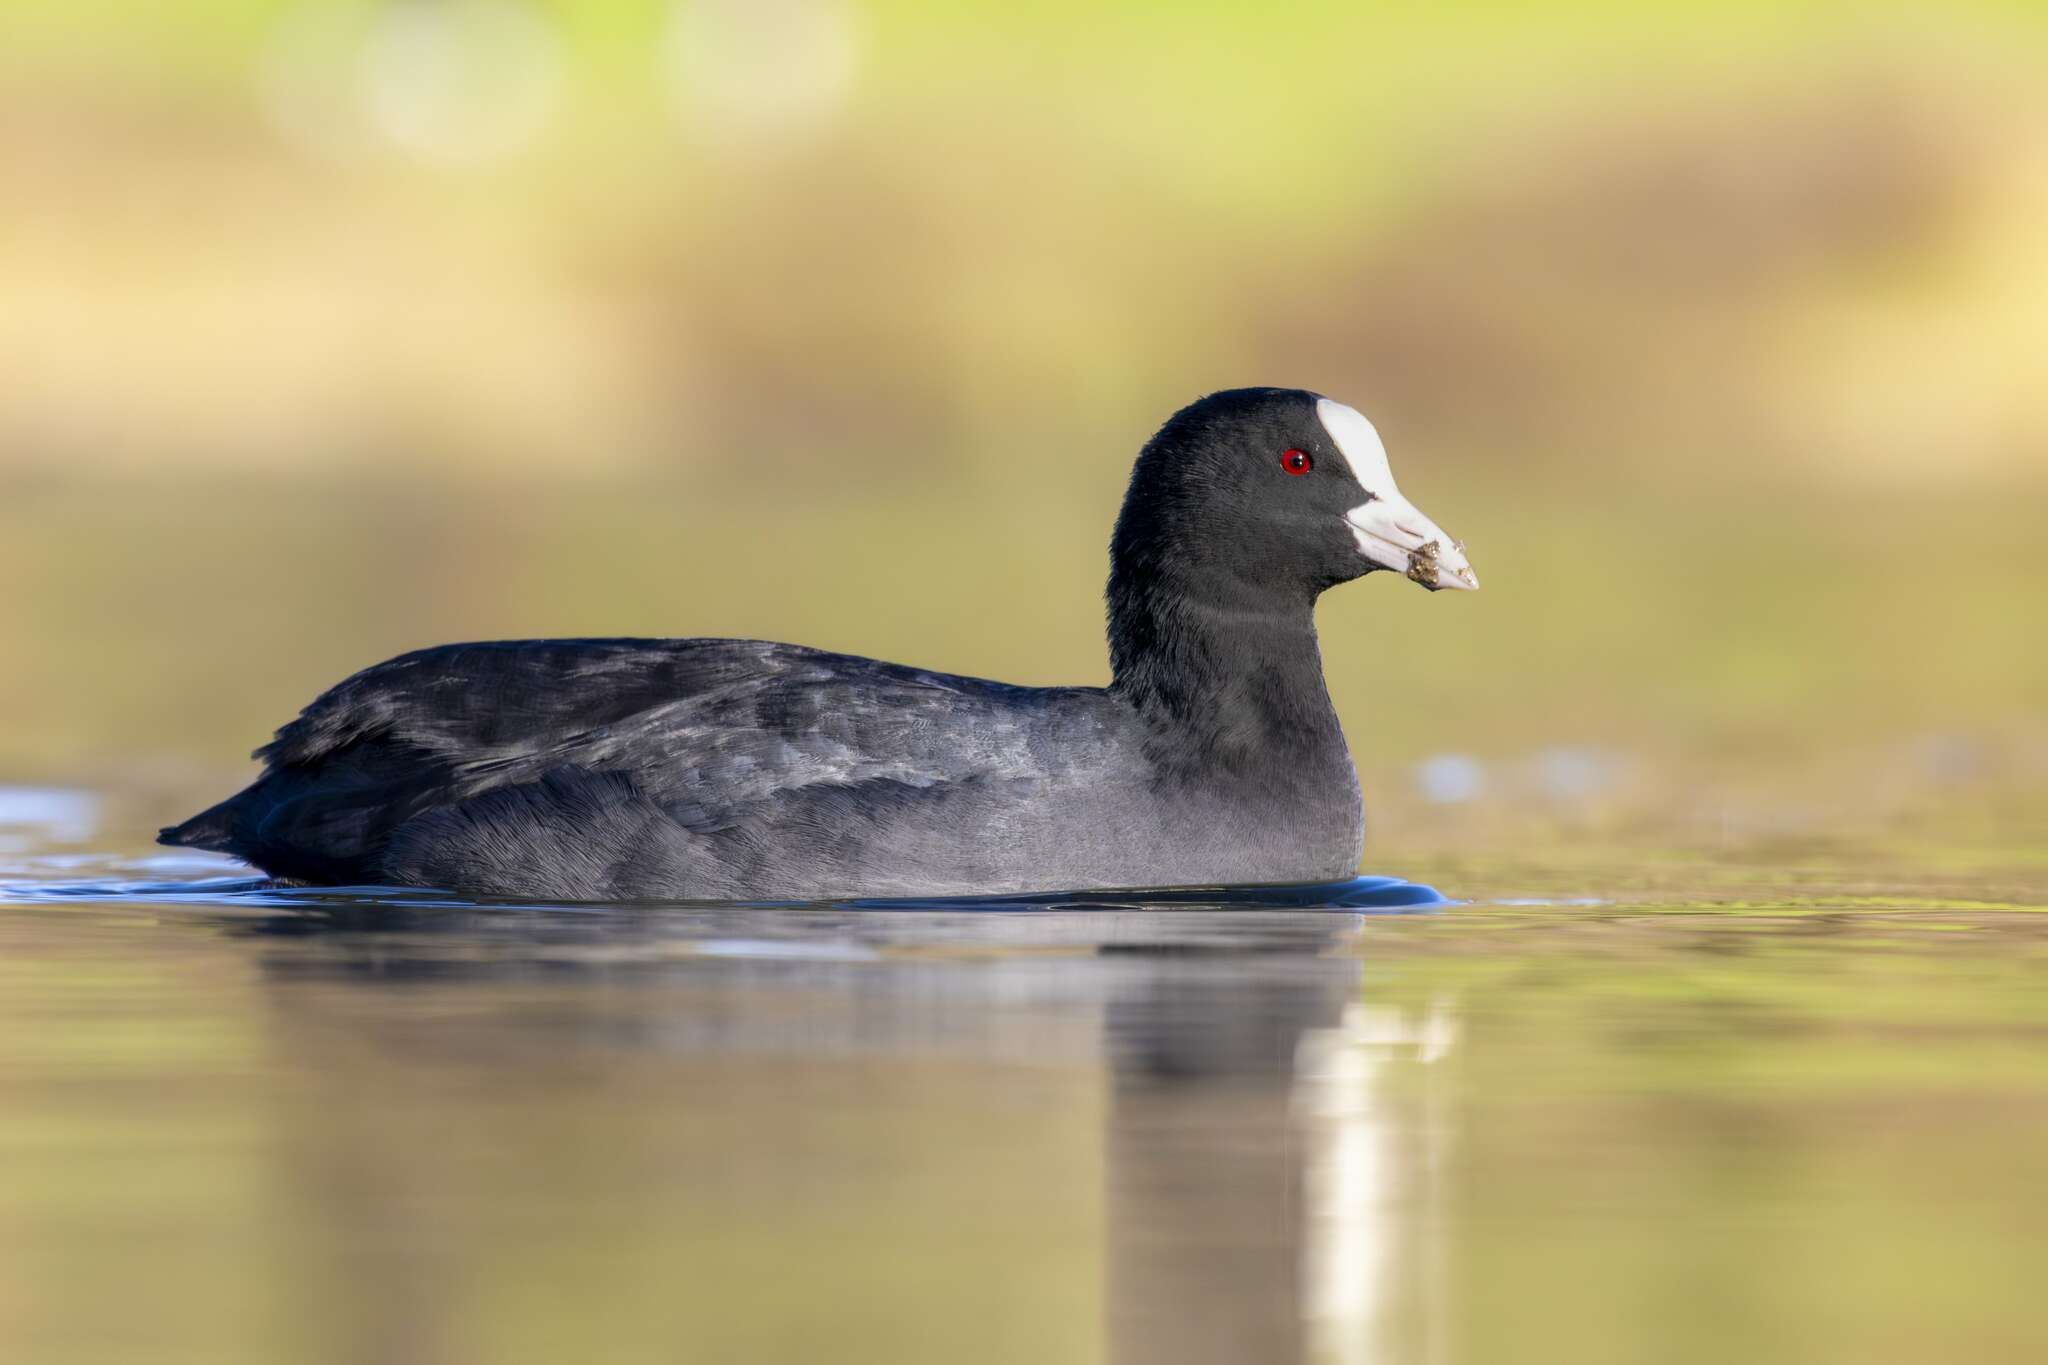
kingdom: Animalia
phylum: Chordata
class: Aves
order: Gruiformes
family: Rallidae
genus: Fulica
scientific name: Fulica atra
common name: Eurasian coot
